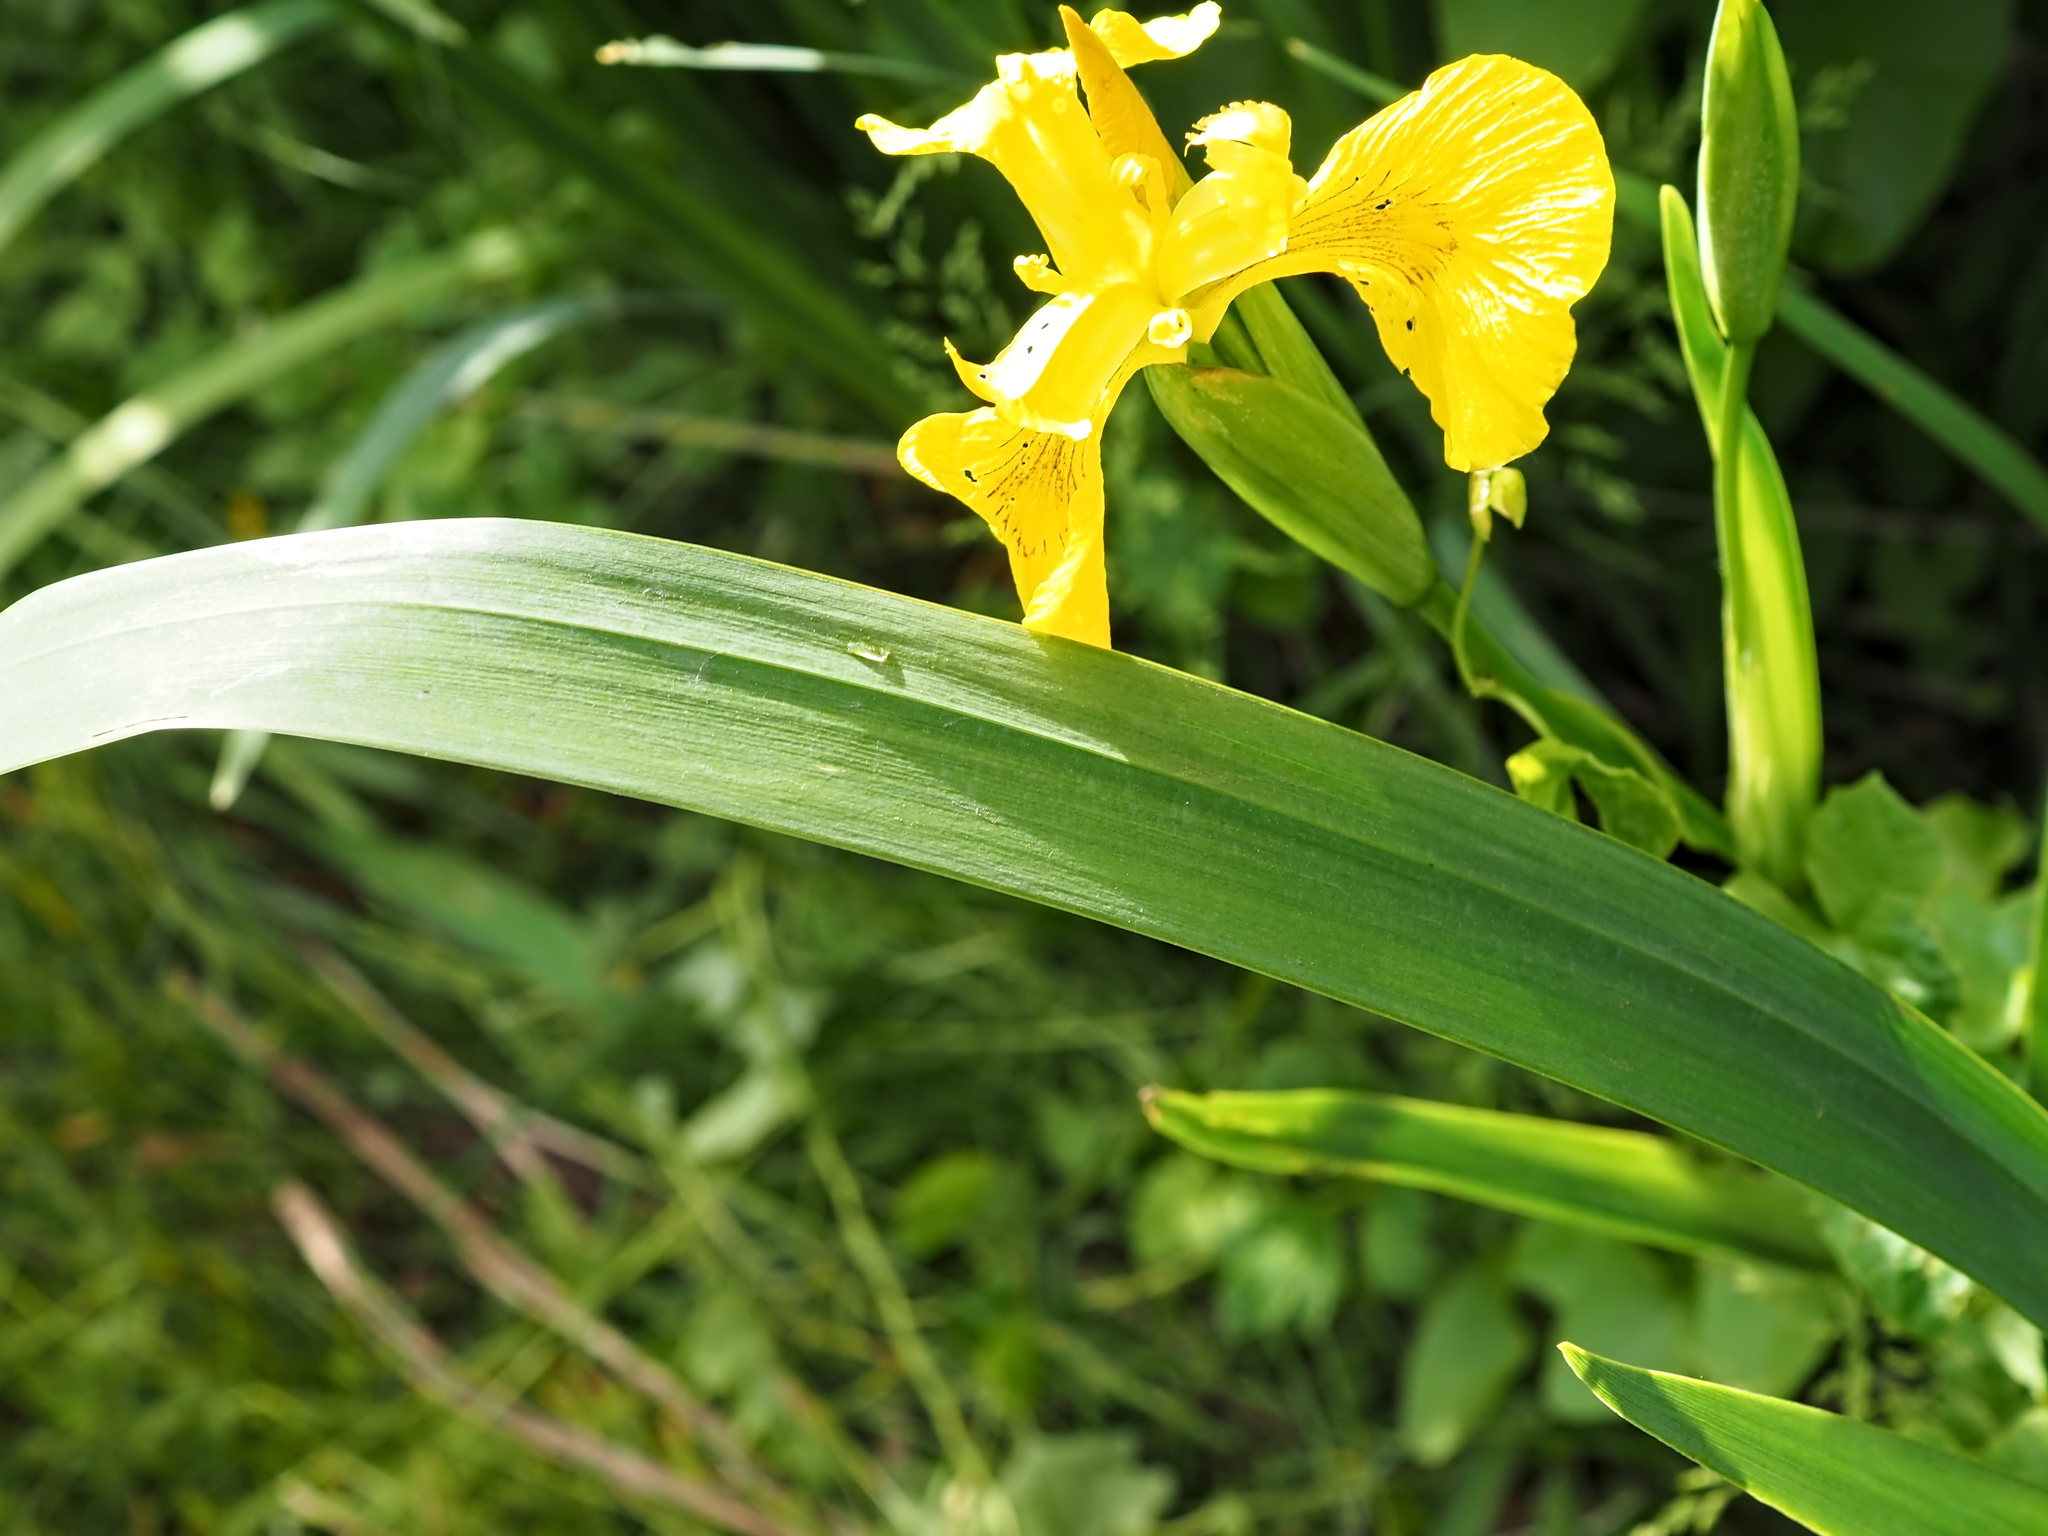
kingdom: Plantae
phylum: Tracheophyta
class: Liliopsida
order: Asparagales
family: Iridaceae
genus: Iris
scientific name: Iris pseudacorus
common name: Yellow flag
